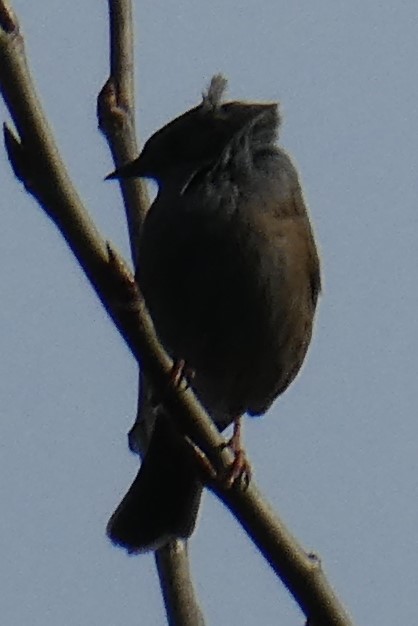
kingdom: Animalia
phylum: Chordata
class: Aves
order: Passeriformes
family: Prunellidae
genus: Prunella
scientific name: Prunella modularis
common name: Dunnock
